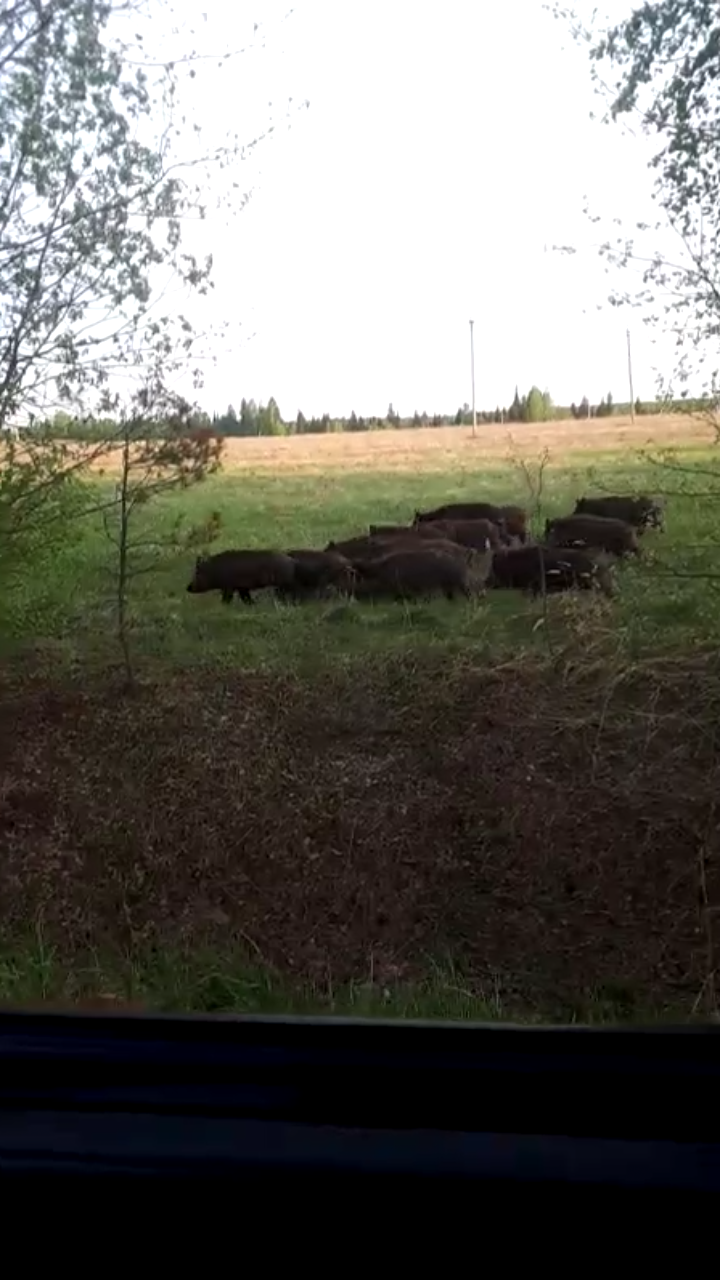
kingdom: Animalia
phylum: Chordata
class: Mammalia
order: Artiodactyla
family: Suidae
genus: Sus
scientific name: Sus scrofa
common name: Wild boar
